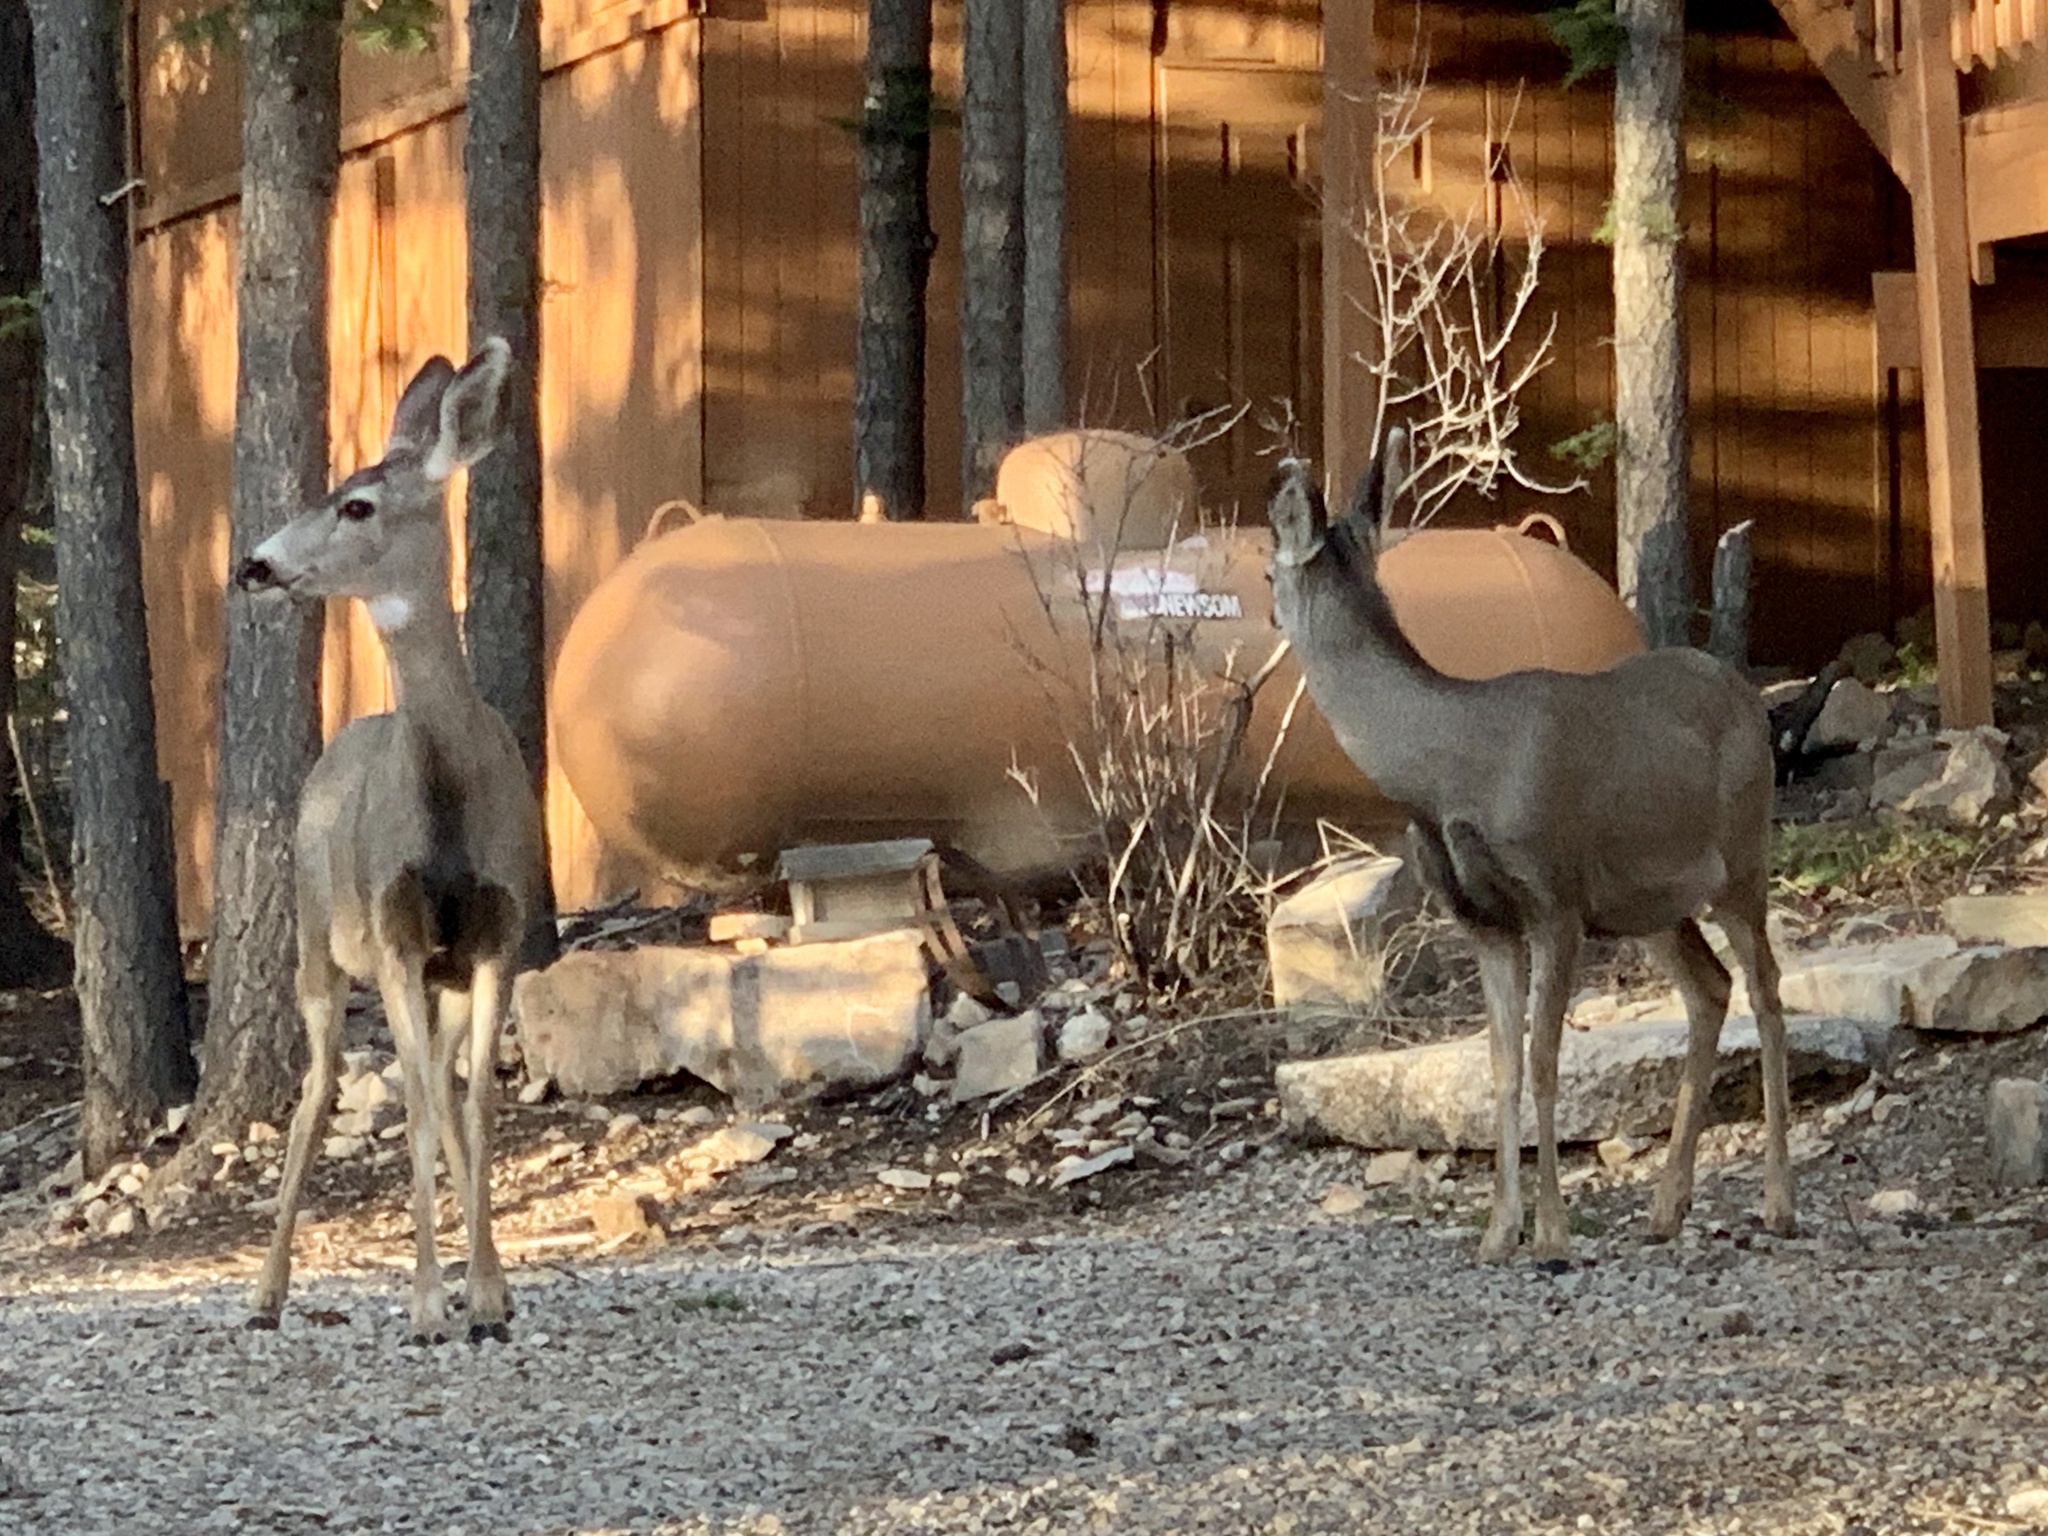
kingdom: Animalia
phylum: Chordata
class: Mammalia
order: Artiodactyla
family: Cervidae
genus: Odocoileus
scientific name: Odocoileus hemionus
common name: Mule deer
